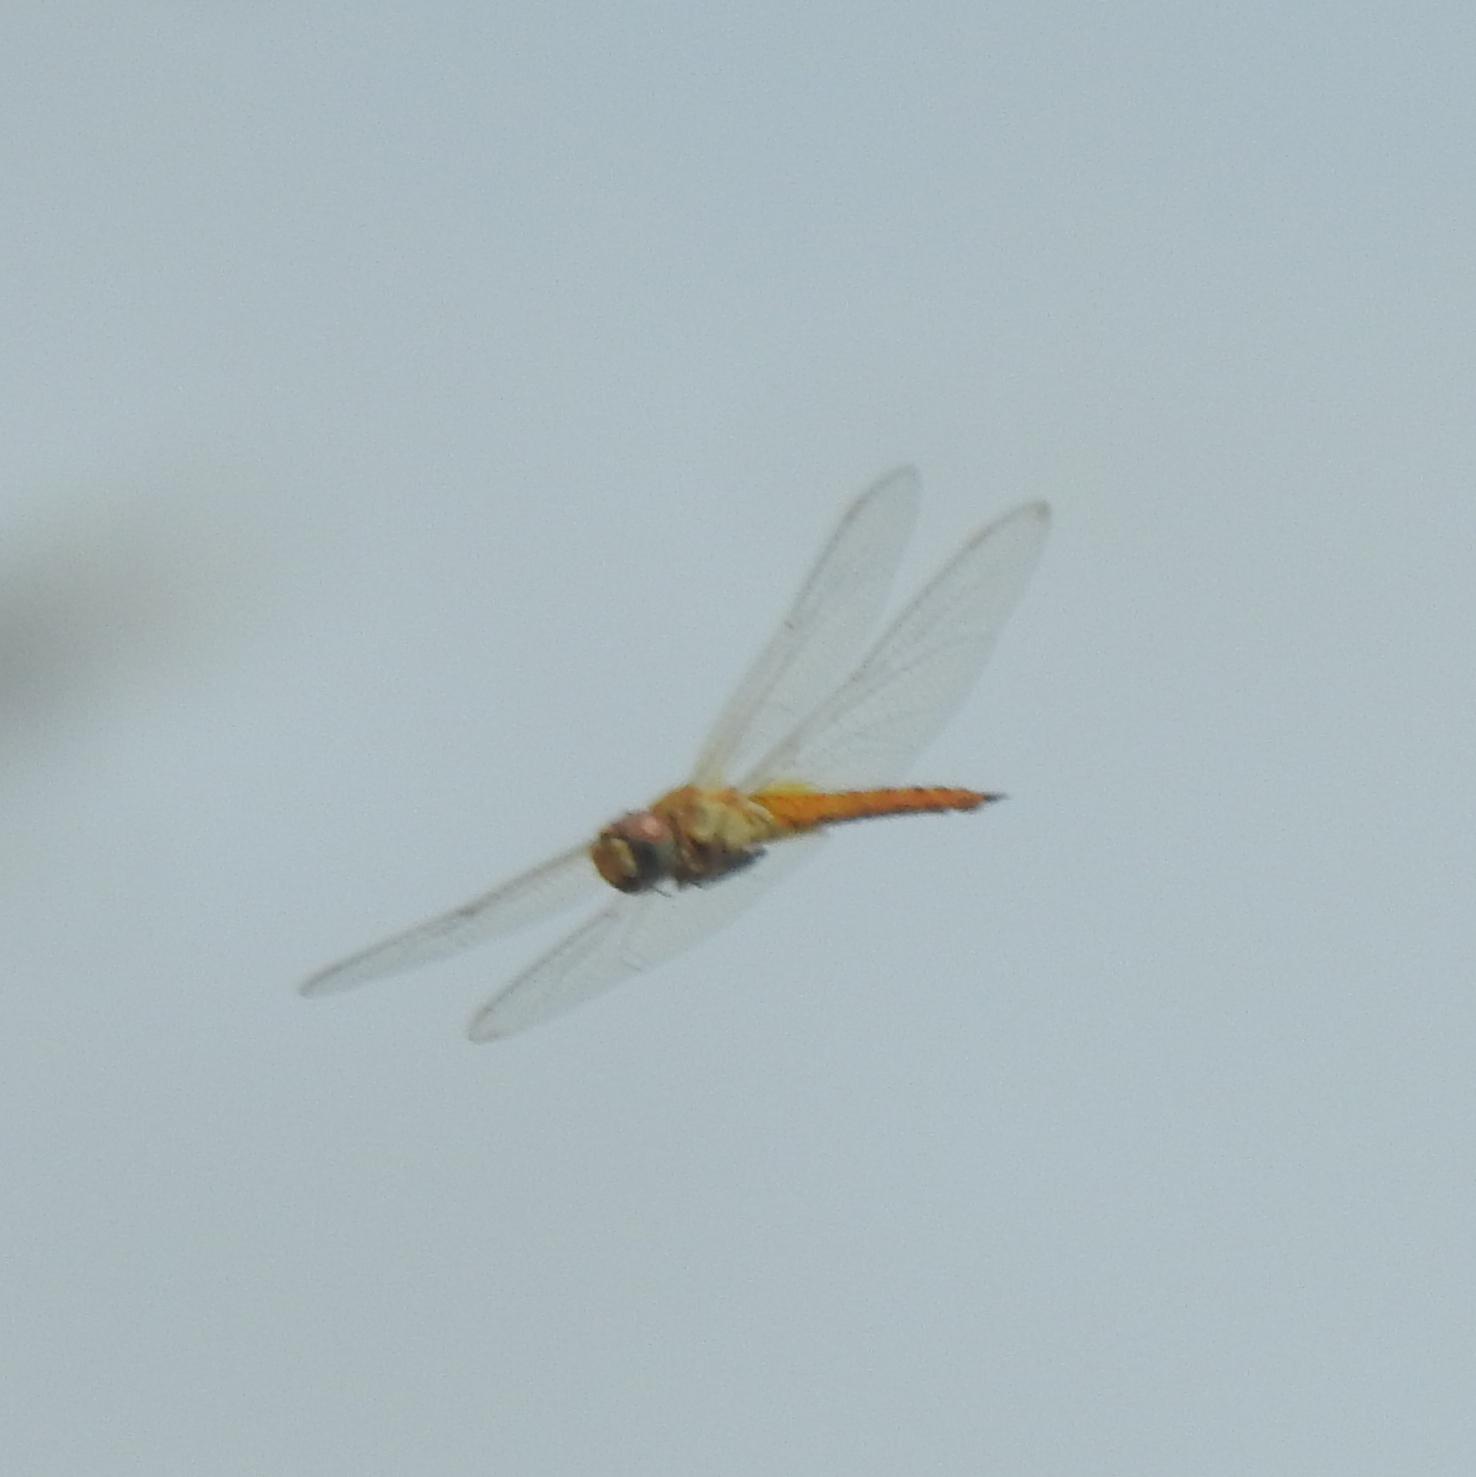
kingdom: Animalia
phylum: Arthropoda
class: Insecta
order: Odonata
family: Libellulidae
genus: Pantala
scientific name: Pantala flavescens
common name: Wandering glider
